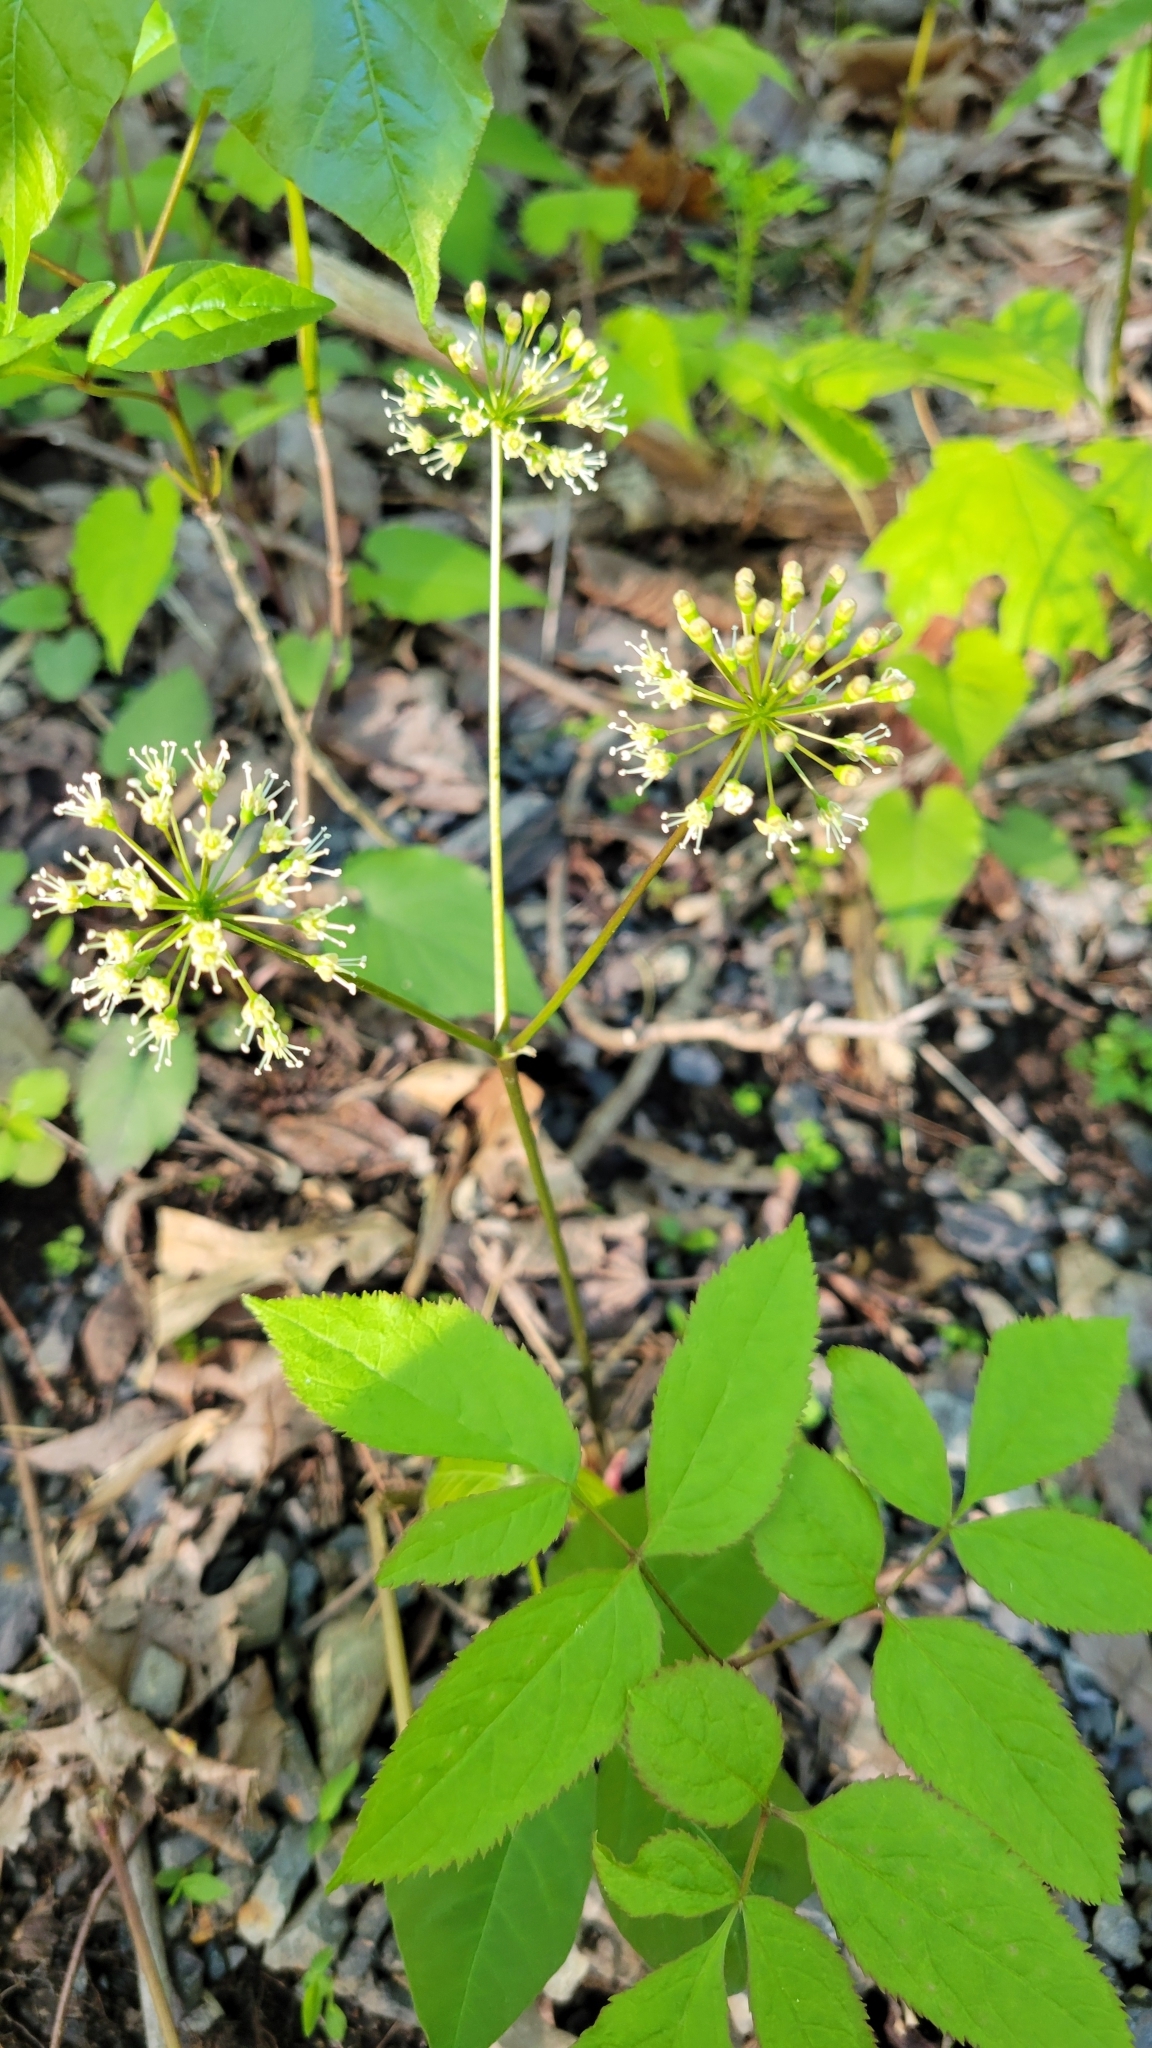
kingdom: Plantae
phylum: Tracheophyta
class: Magnoliopsida
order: Apiales
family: Araliaceae
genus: Aralia
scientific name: Aralia nudicaulis
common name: Wild sarsaparilla
